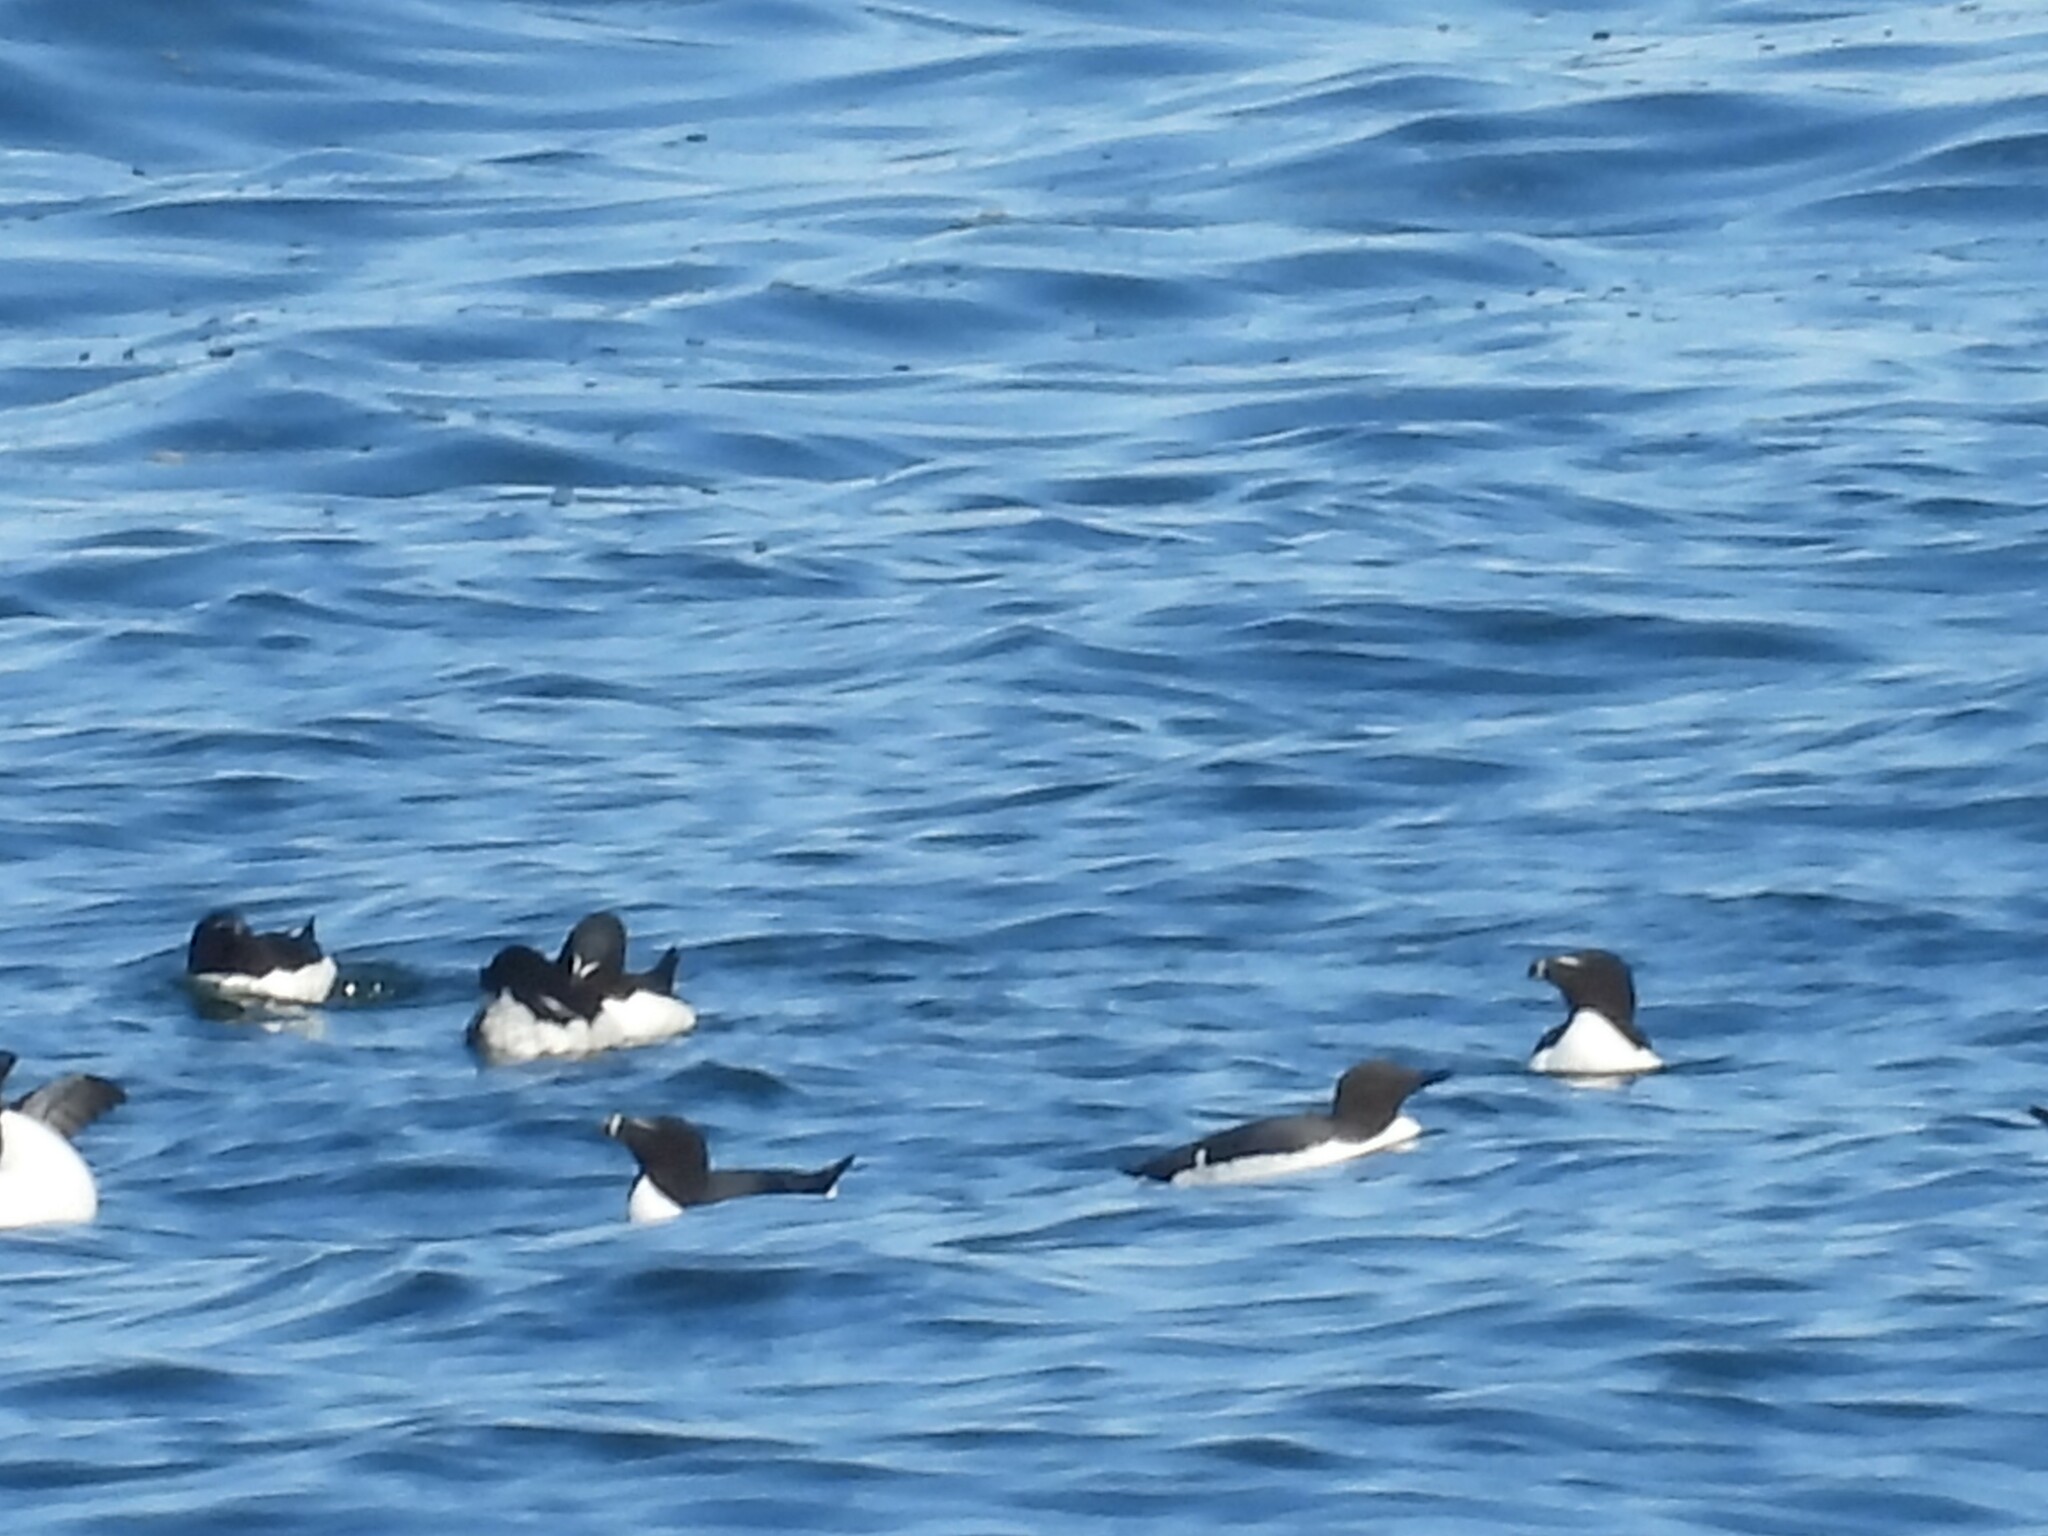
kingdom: Animalia
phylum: Chordata
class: Aves
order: Charadriiformes
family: Alcidae
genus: Uria
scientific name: Uria aalge
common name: Common murre
